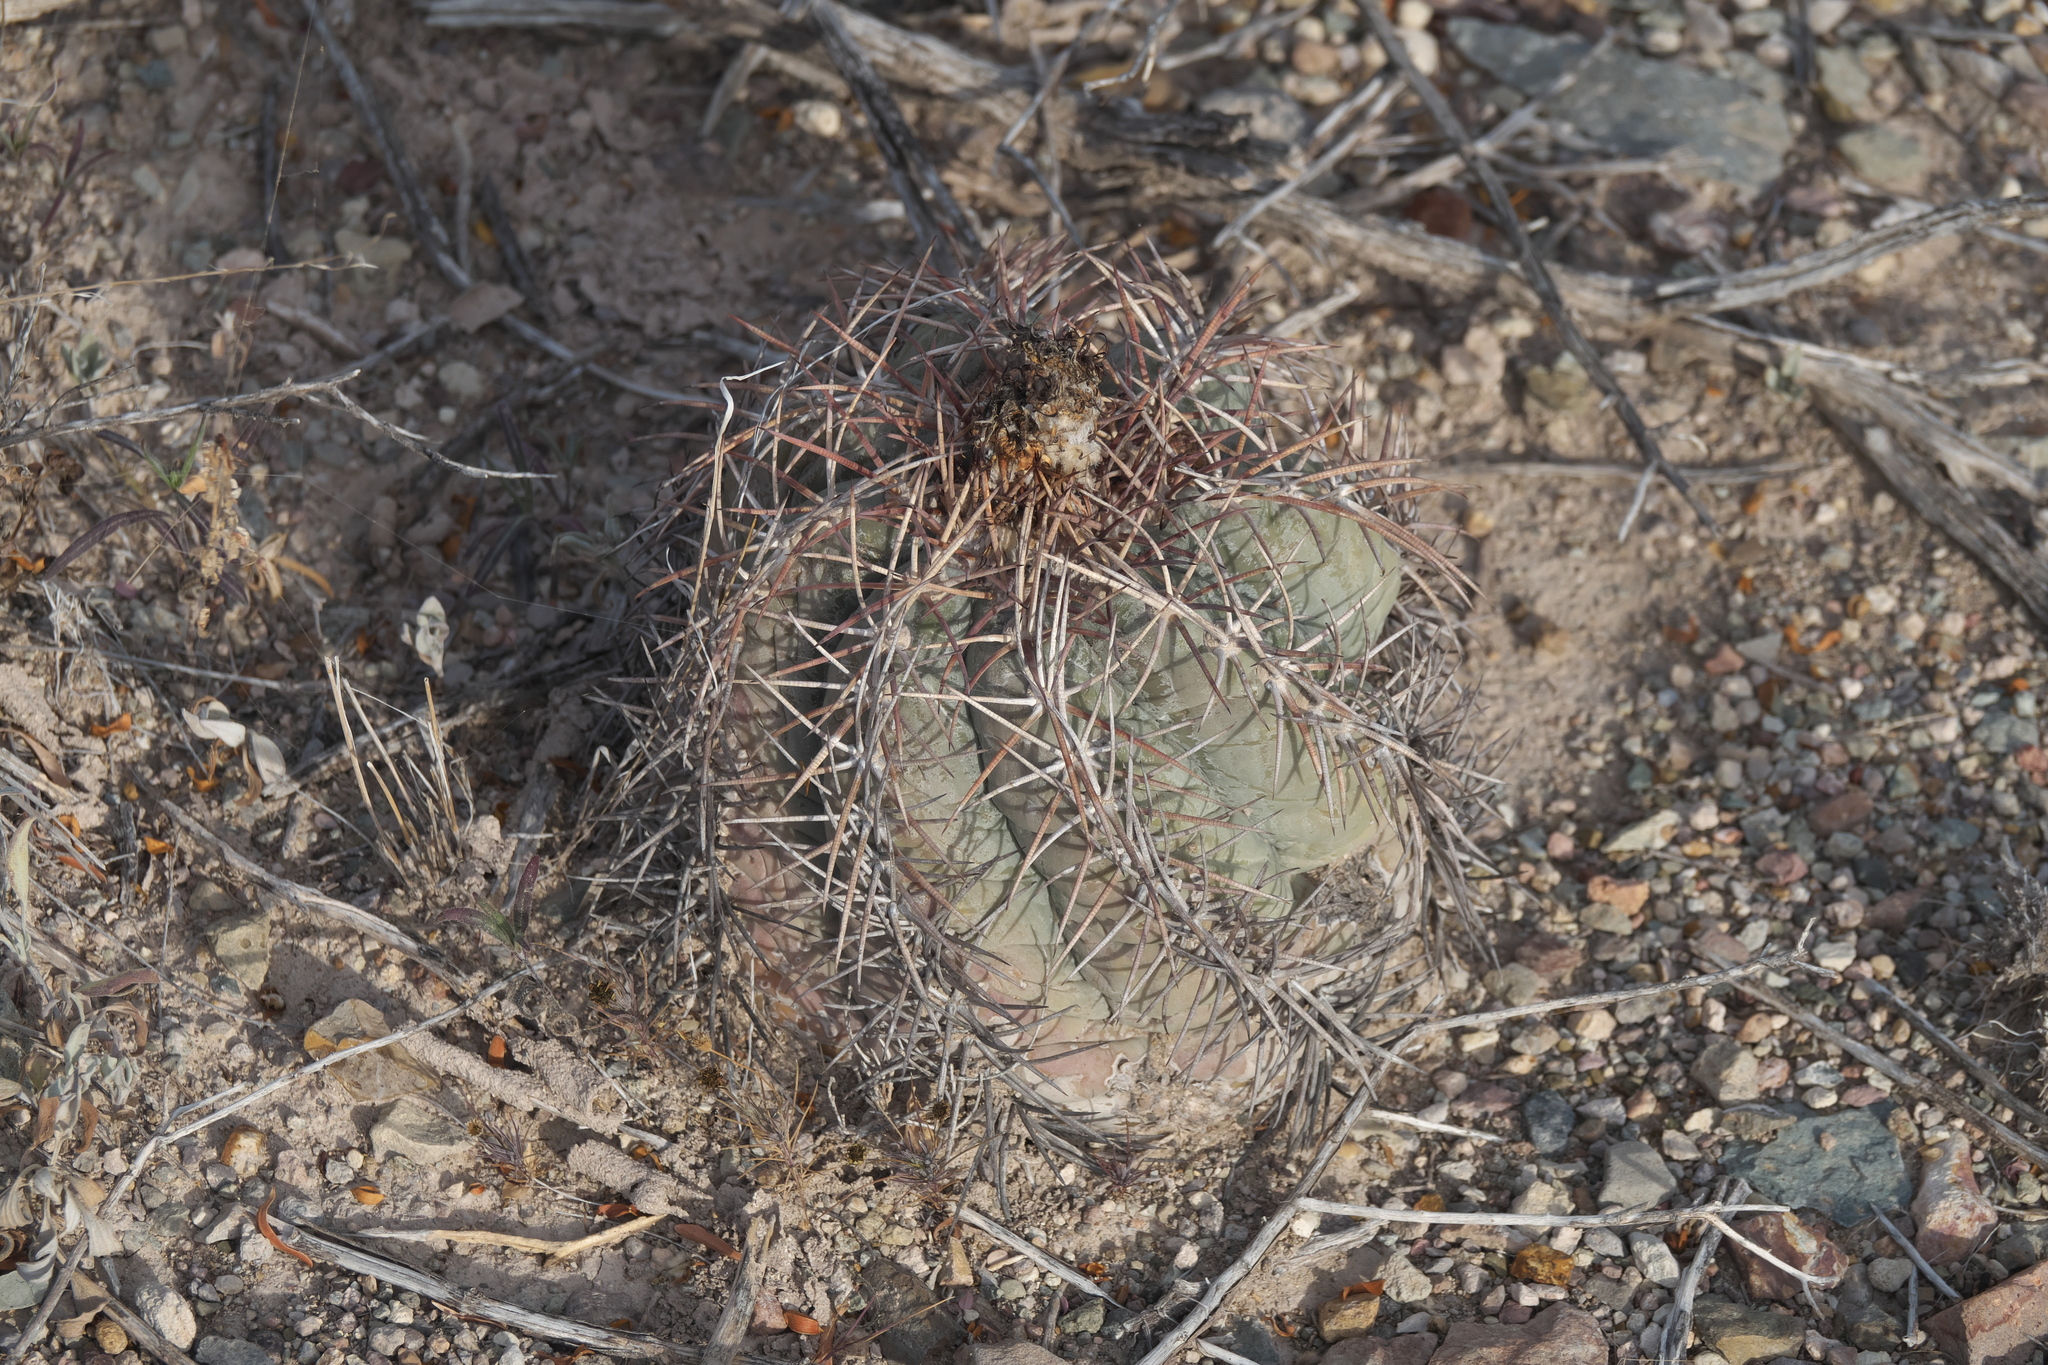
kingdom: Plantae
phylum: Tracheophyta
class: Magnoliopsida
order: Caryophyllales
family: Cactaceae
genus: Echinocactus
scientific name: Echinocactus horizonthalonius
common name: Devilshead
